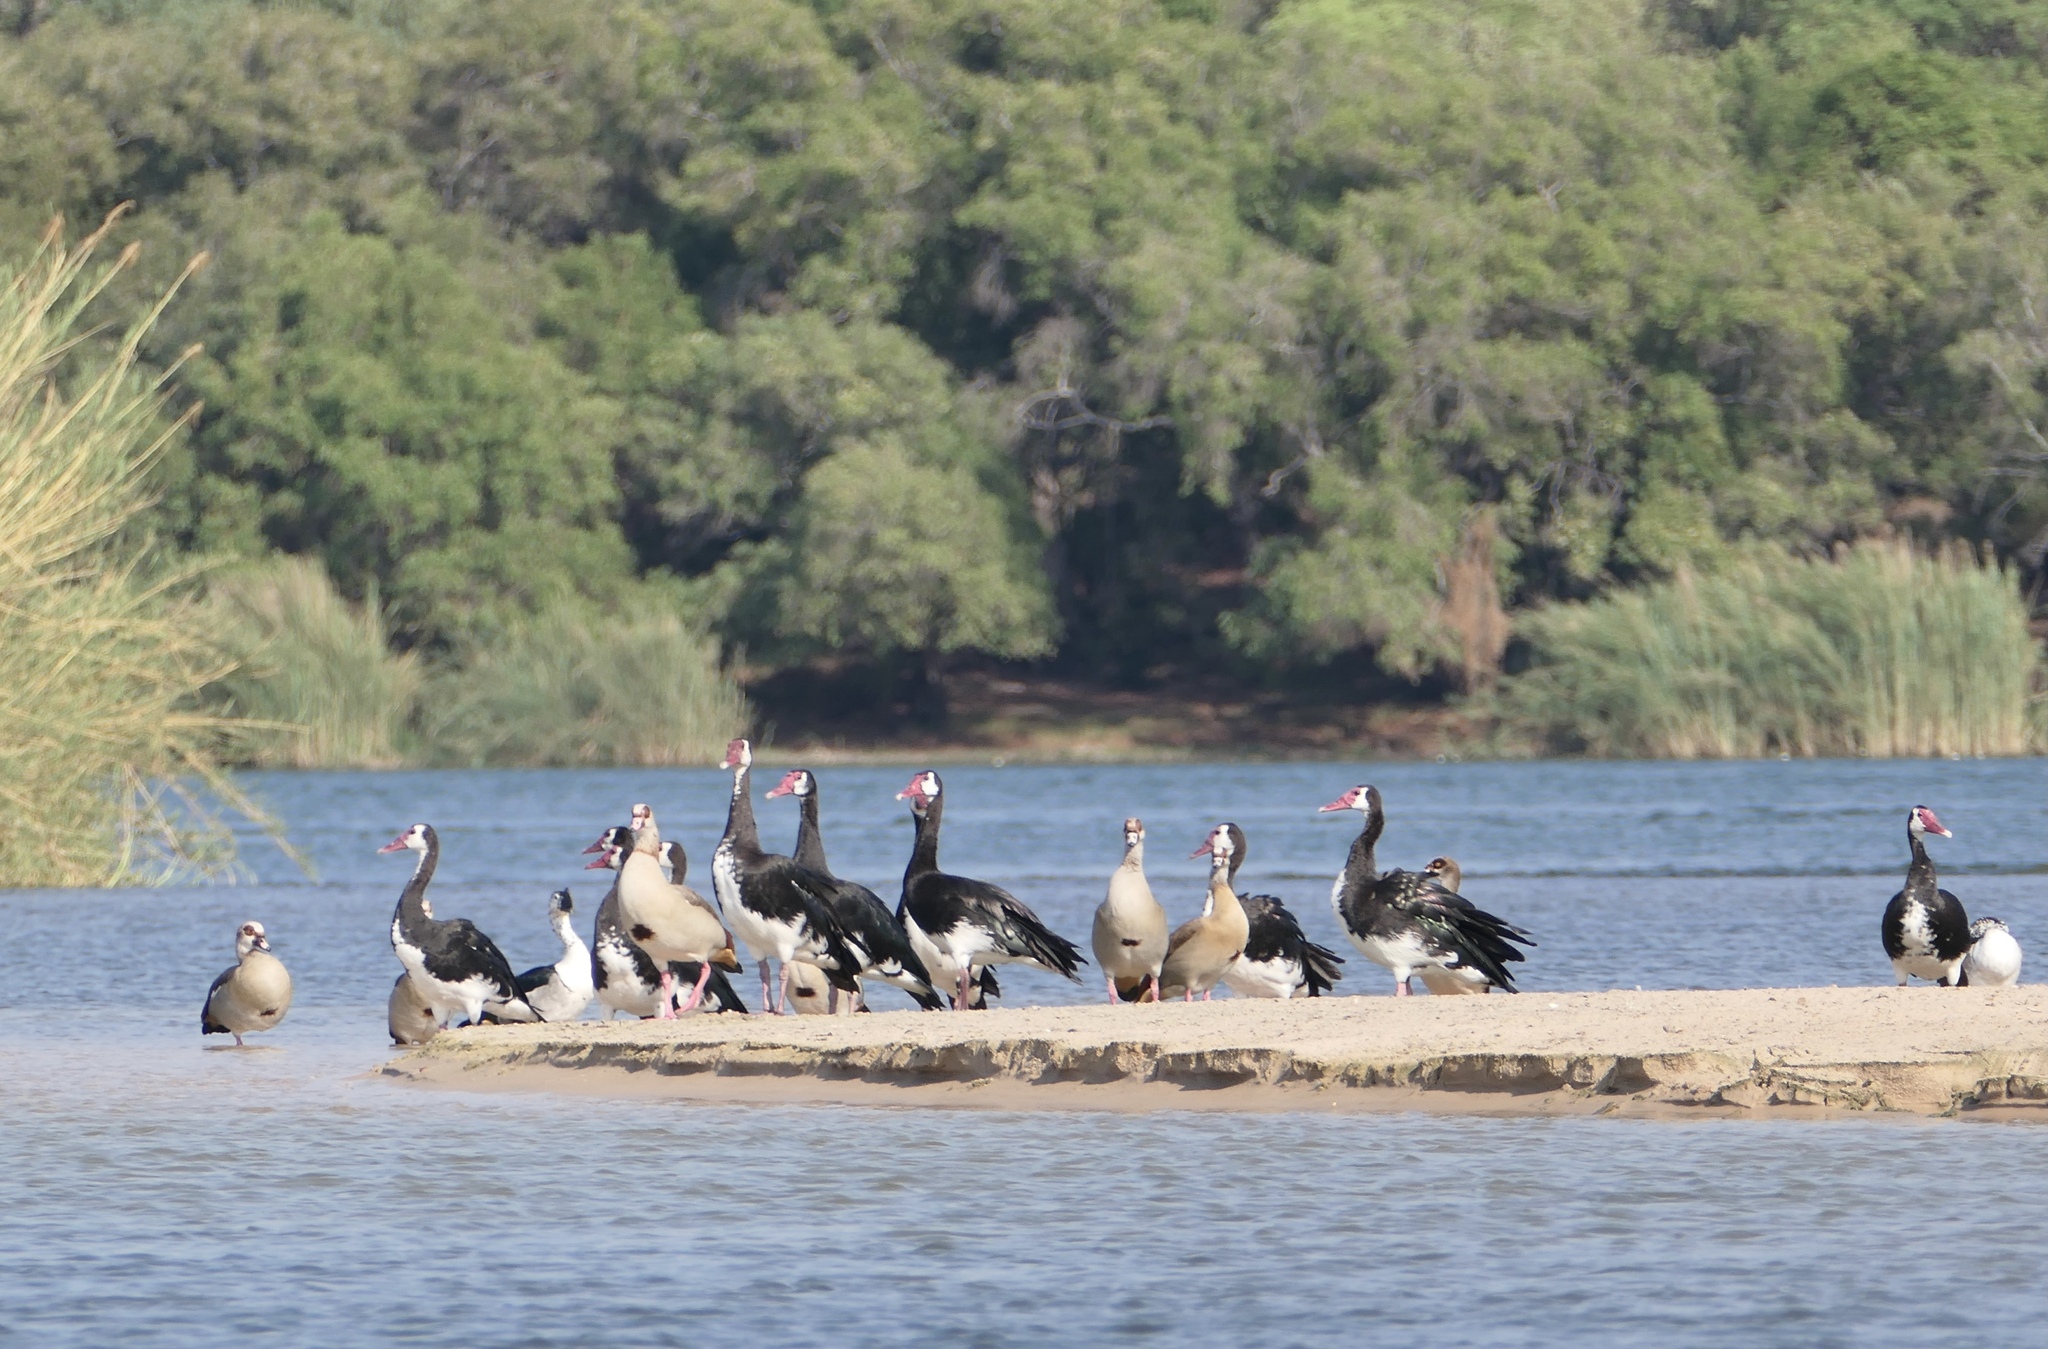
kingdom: Animalia
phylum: Chordata
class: Aves
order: Anseriformes
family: Anatidae
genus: Plectropterus
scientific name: Plectropterus gambensis
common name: Spur-winged goose
